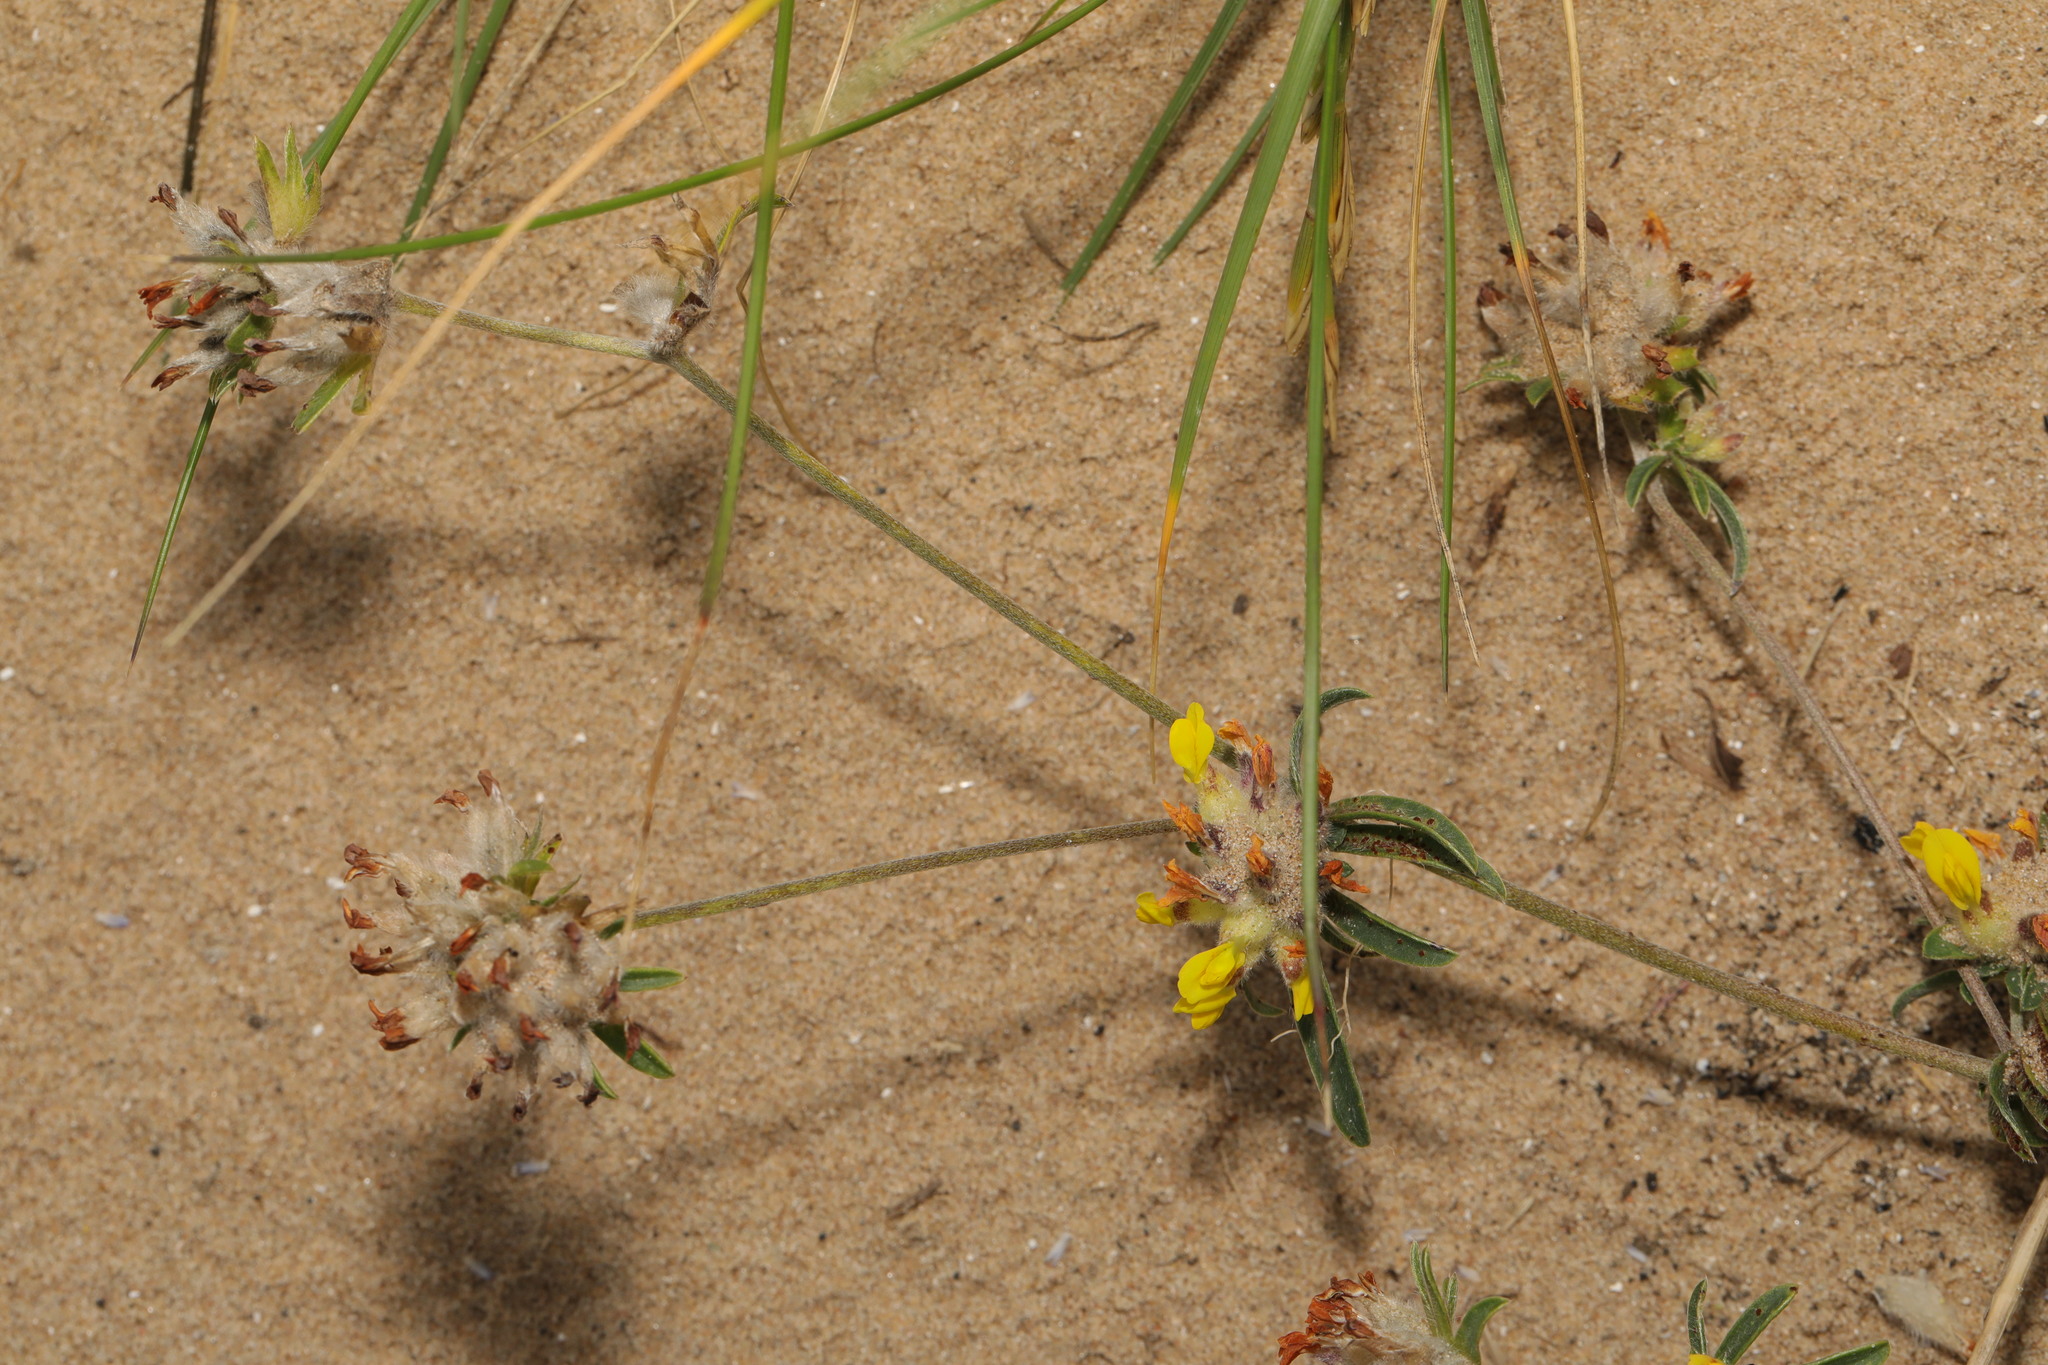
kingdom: Plantae
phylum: Tracheophyta
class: Magnoliopsida
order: Fabales
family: Fabaceae
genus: Anthyllis
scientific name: Anthyllis vulneraria
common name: Kidney vetch
